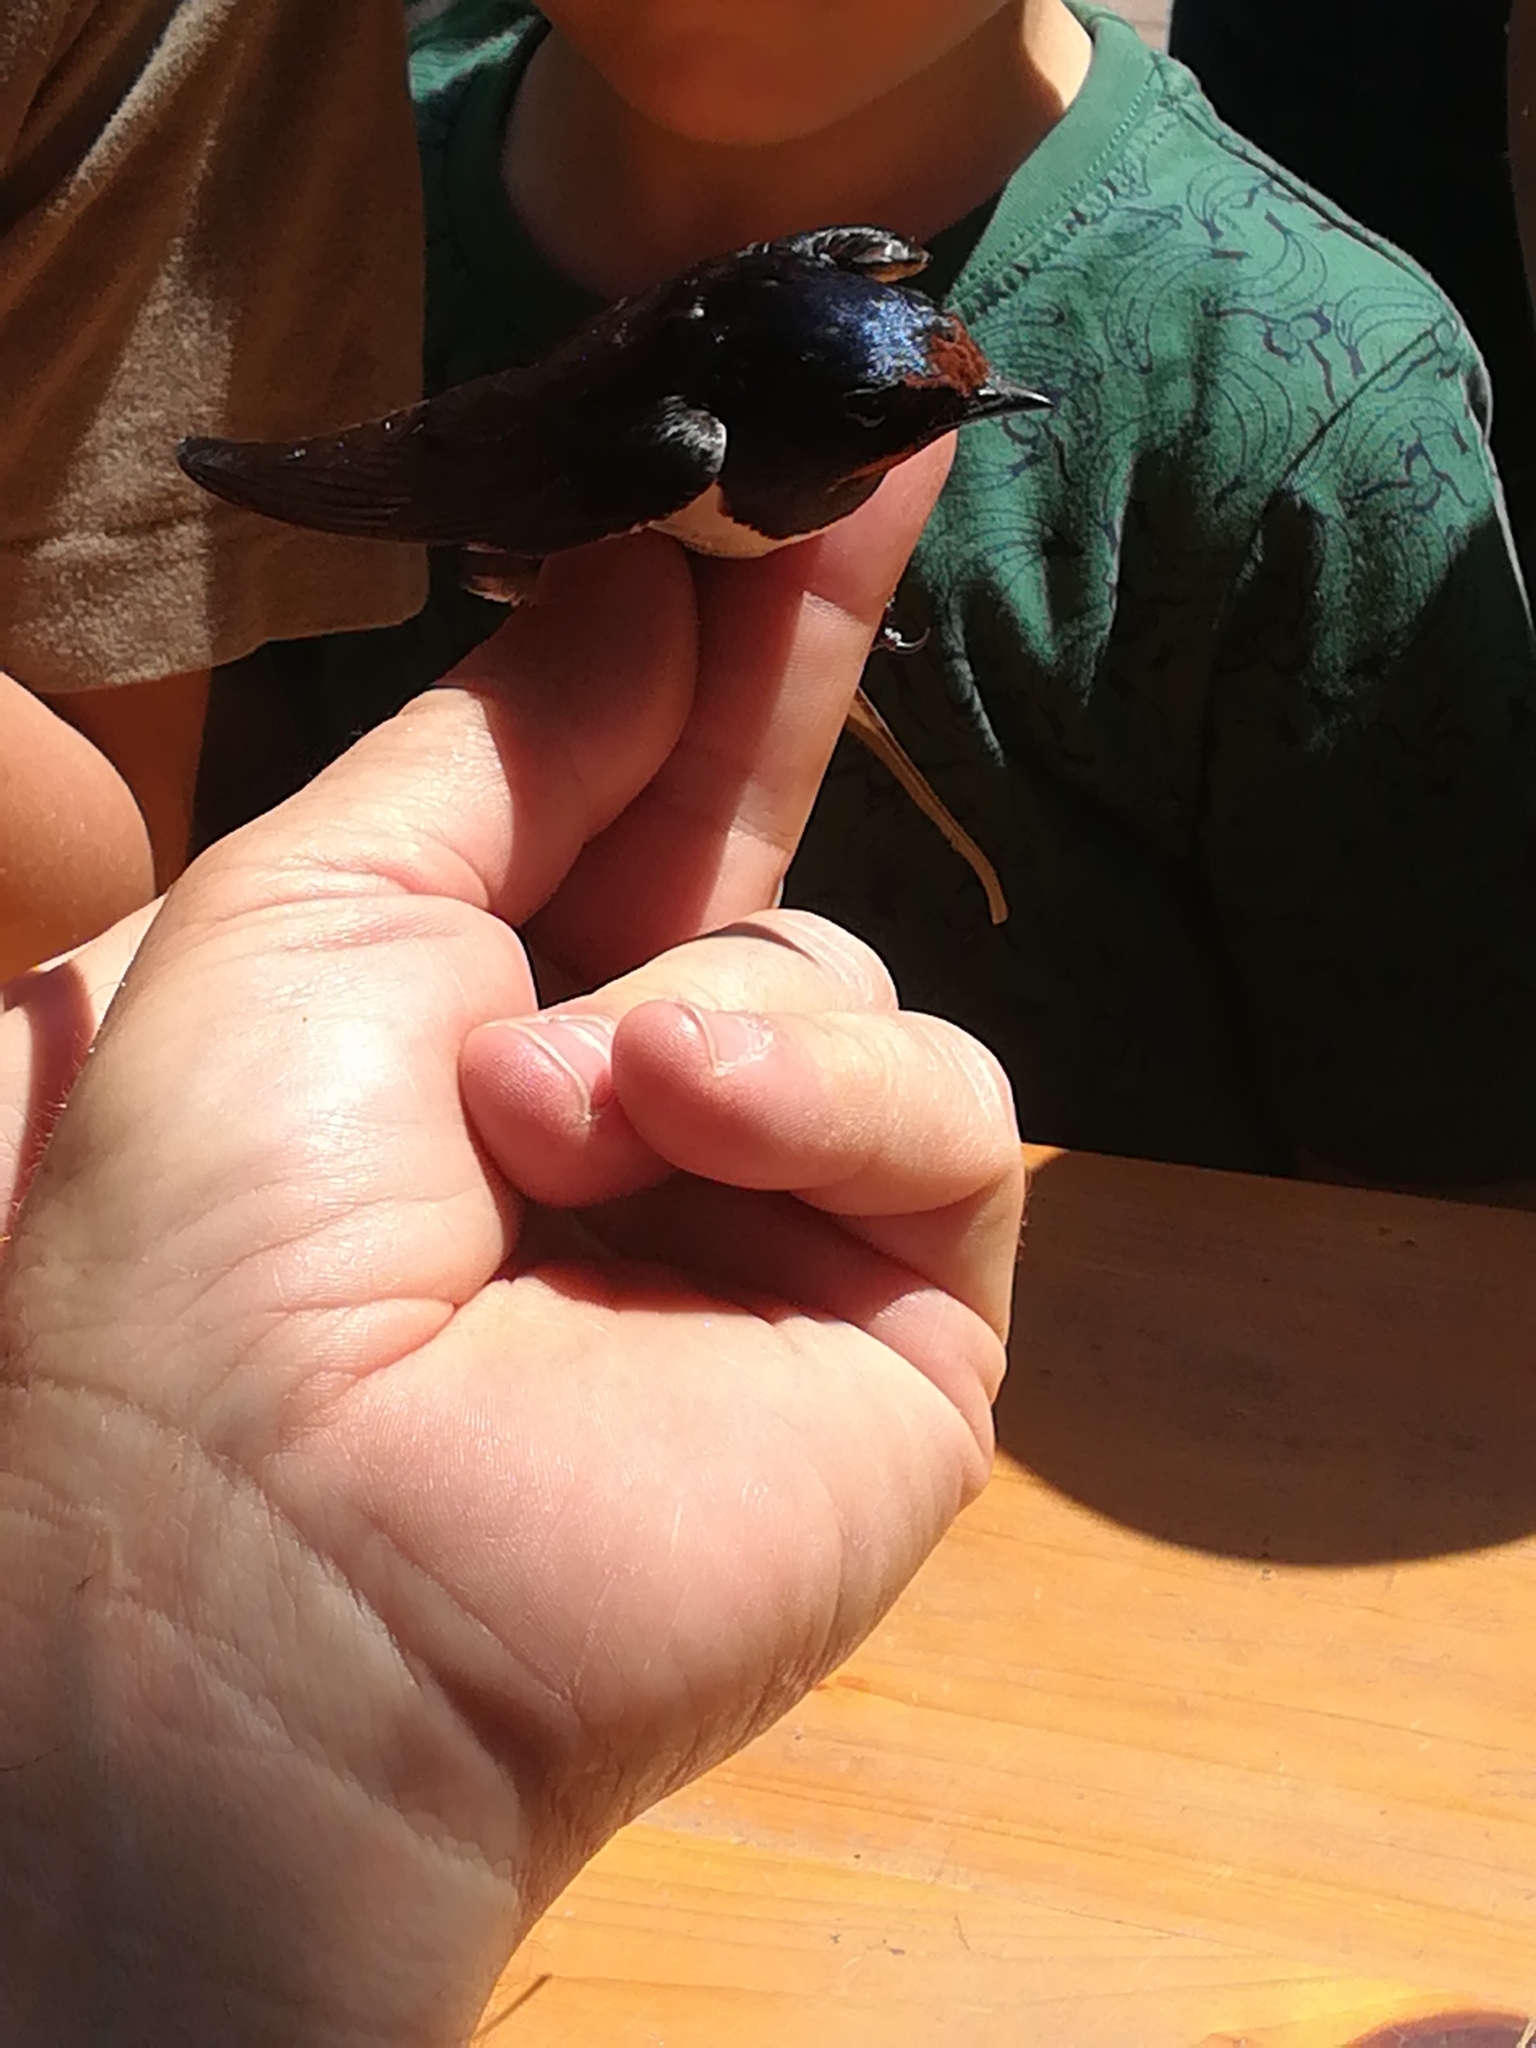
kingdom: Animalia
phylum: Chordata
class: Aves
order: Passeriformes
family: Hirundinidae
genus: Hirundo
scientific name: Hirundo rustica
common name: Barn swallow
